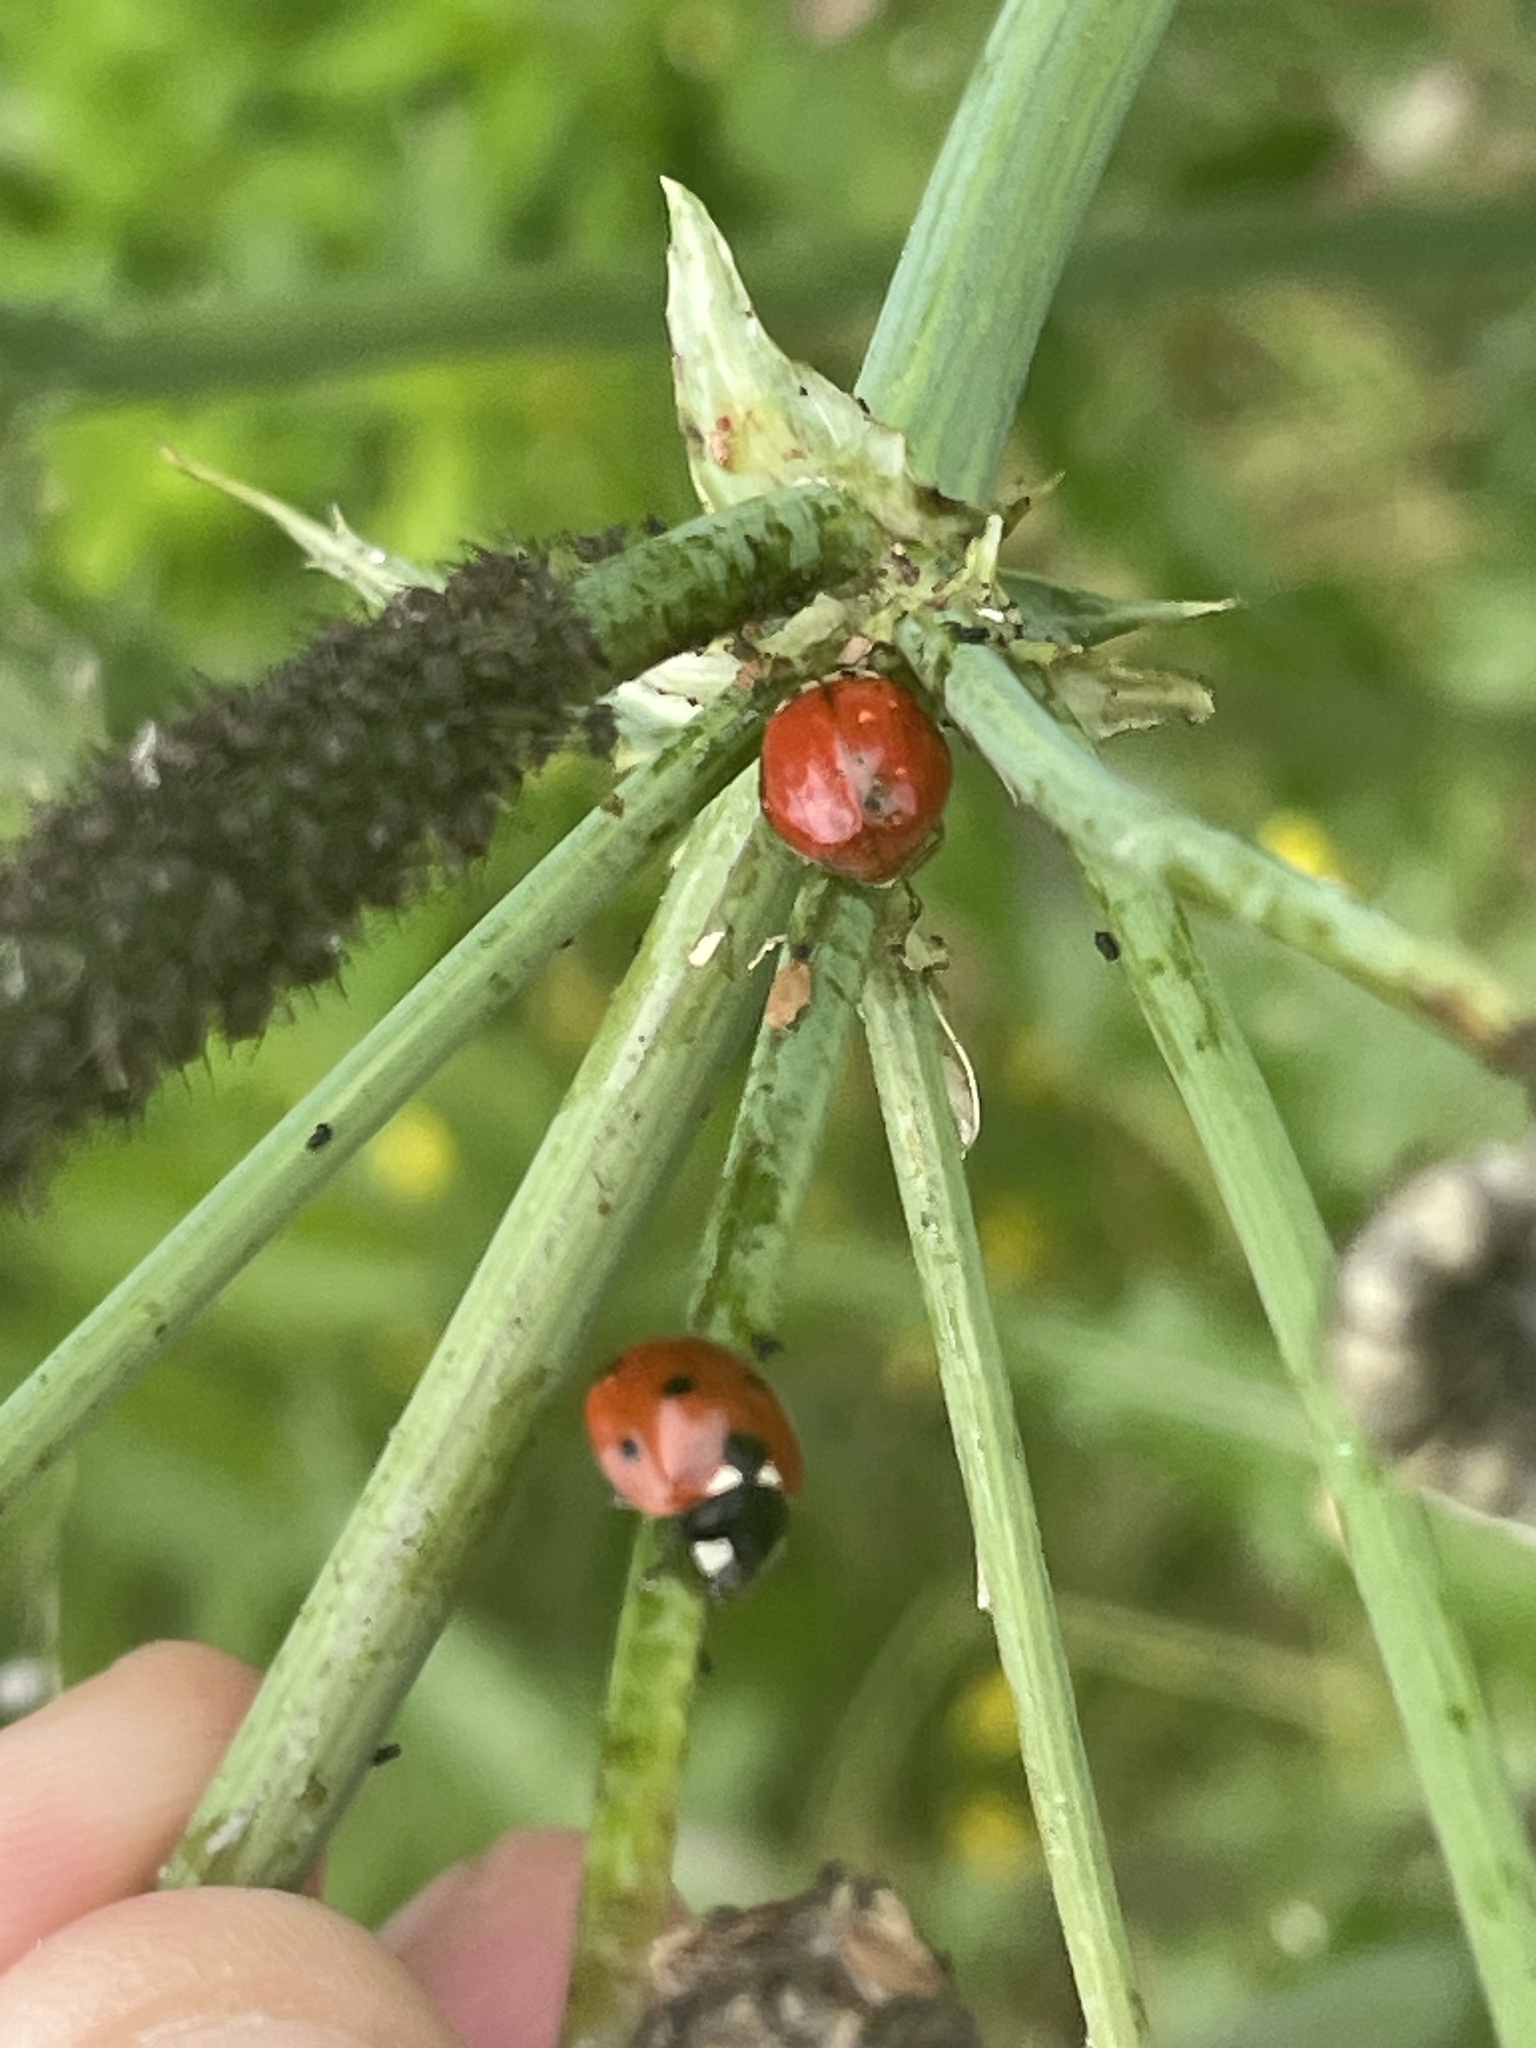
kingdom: Animalia
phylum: Arthropoda
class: Insecta
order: Coleoptera
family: Coccinellidae
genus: Coccinella
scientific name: Coccinella septempunctata
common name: Sevenspotted lady beetle
